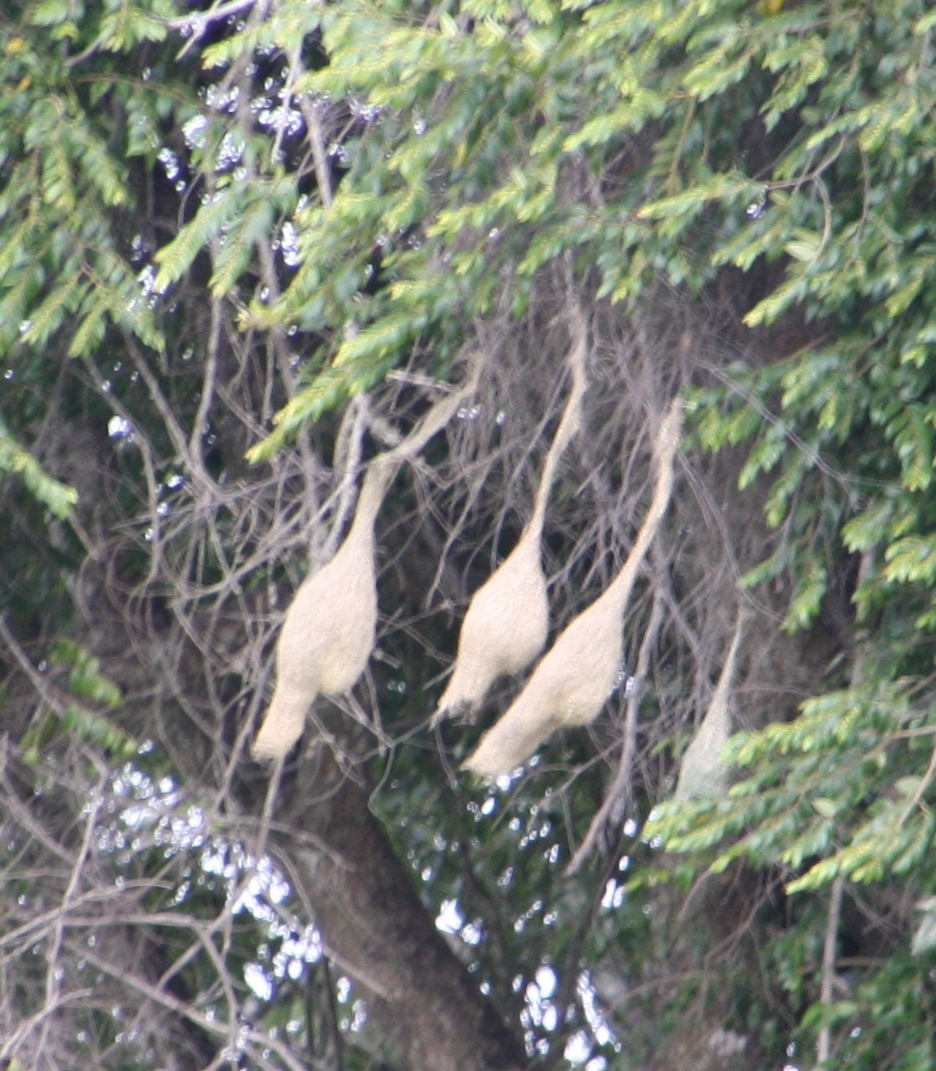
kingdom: Animalia
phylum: Chordata
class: Aves
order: Passeriformes
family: Ploceidae
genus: Ploceus
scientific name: Ploceus philippinus
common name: Baya weaver
